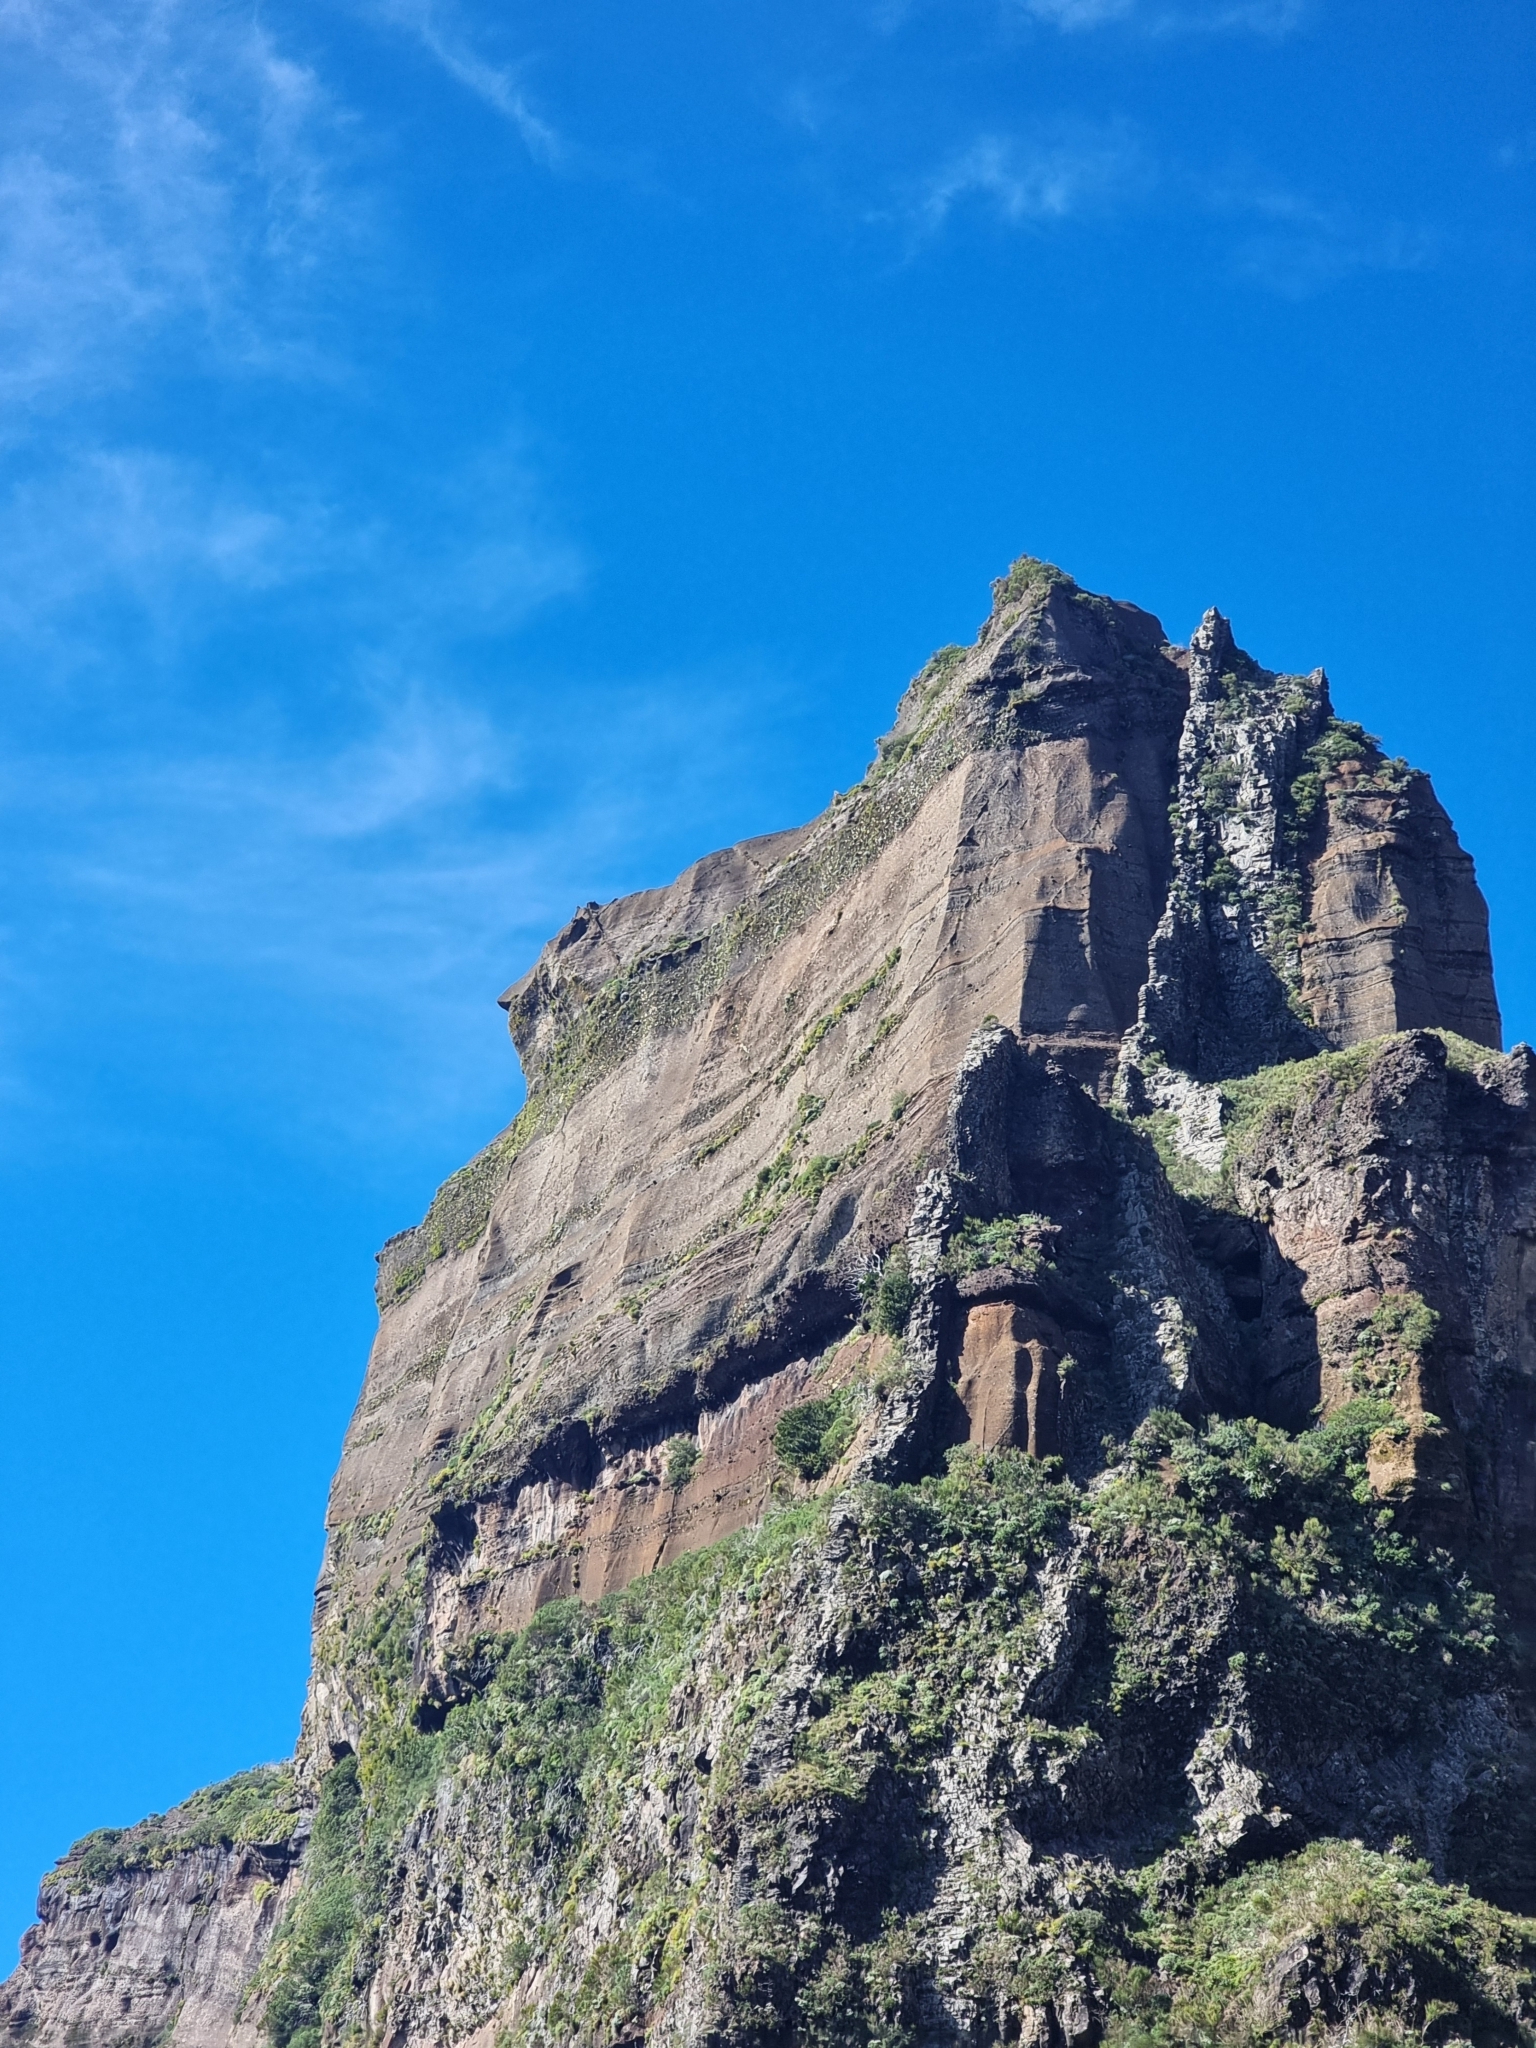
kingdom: Plantae
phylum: Tracheophyta
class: Magnoliopsida
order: Saxifragales
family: Crassulaceae
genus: Aeonium
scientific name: Aeonium glandulosum
